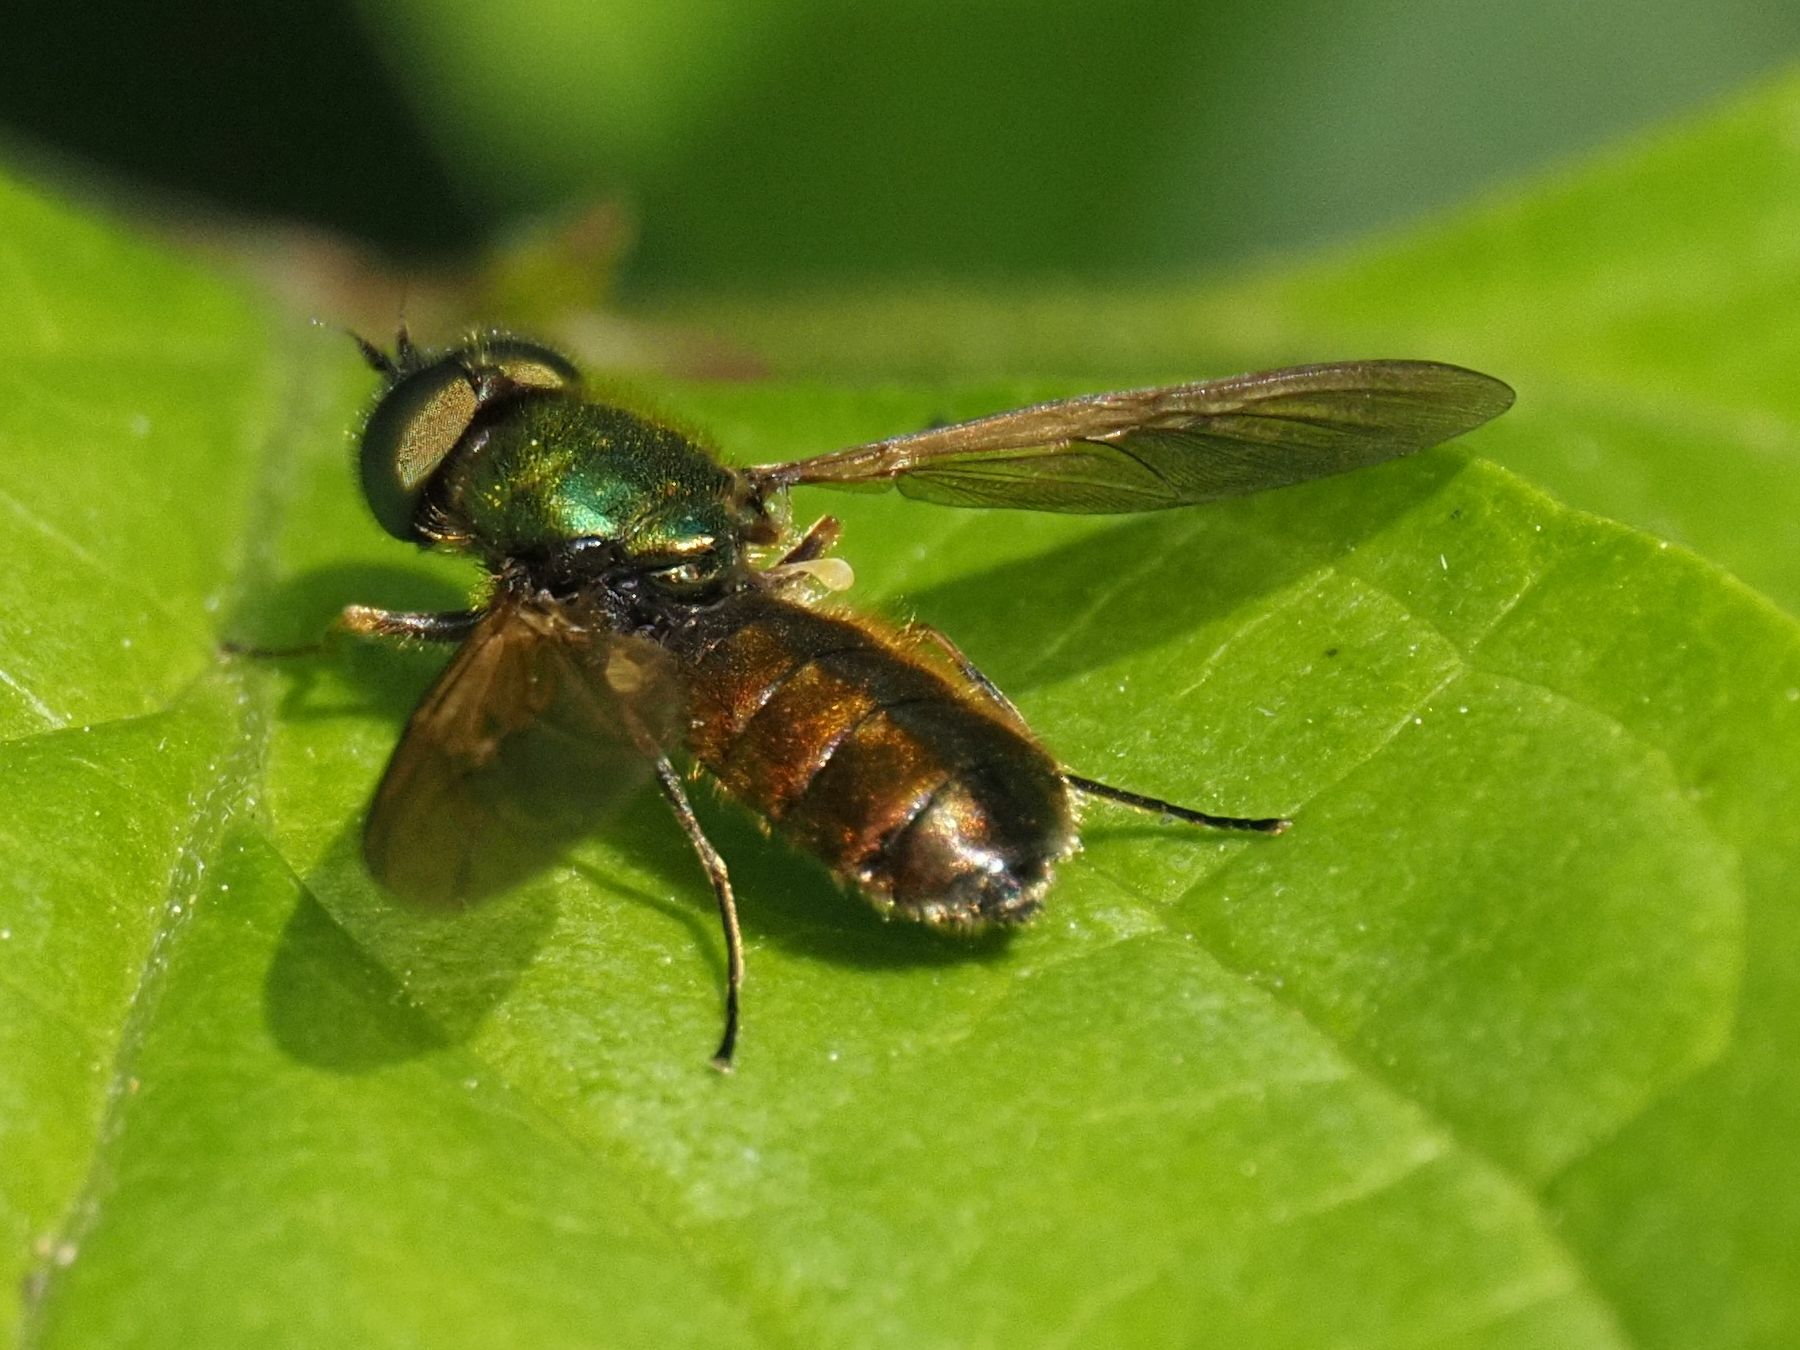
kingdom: Animalia
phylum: Arthropoda
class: Insecta
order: Diptera
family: Stratiomyidae
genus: Chloromyia
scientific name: Chloromyia formosa
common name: Soldier fly
